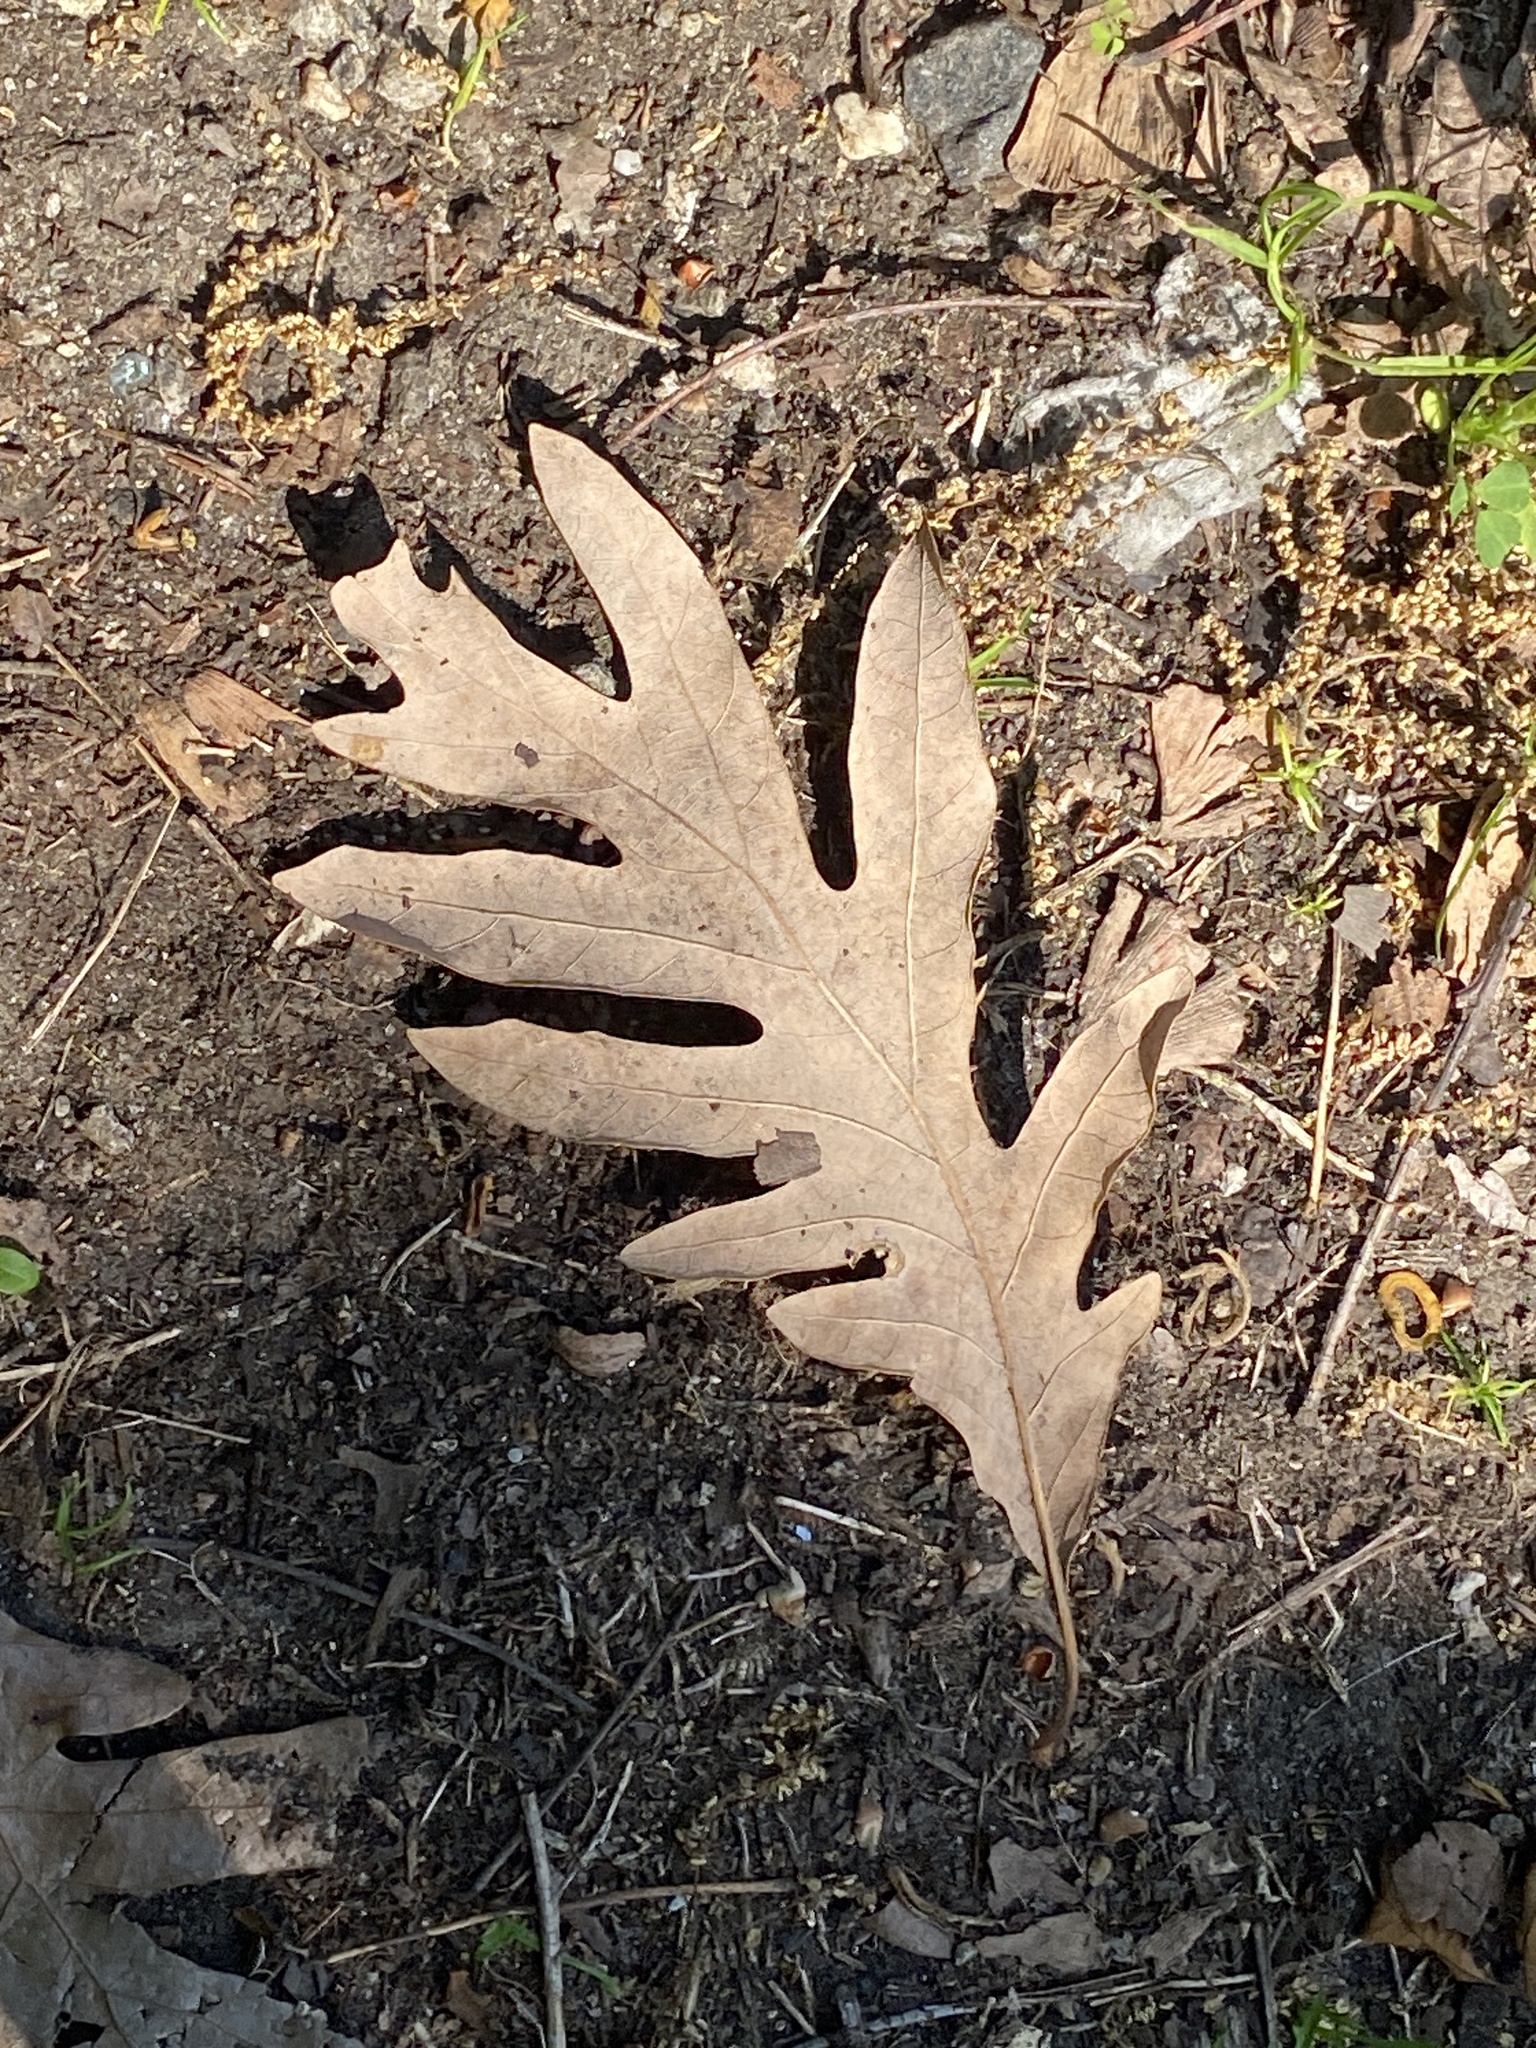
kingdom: Plantae
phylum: Tracheophyta
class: Magnoliopsida
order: Fagales
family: Fagaceae
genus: Quercus
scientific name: Quercus alba
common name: White oak
